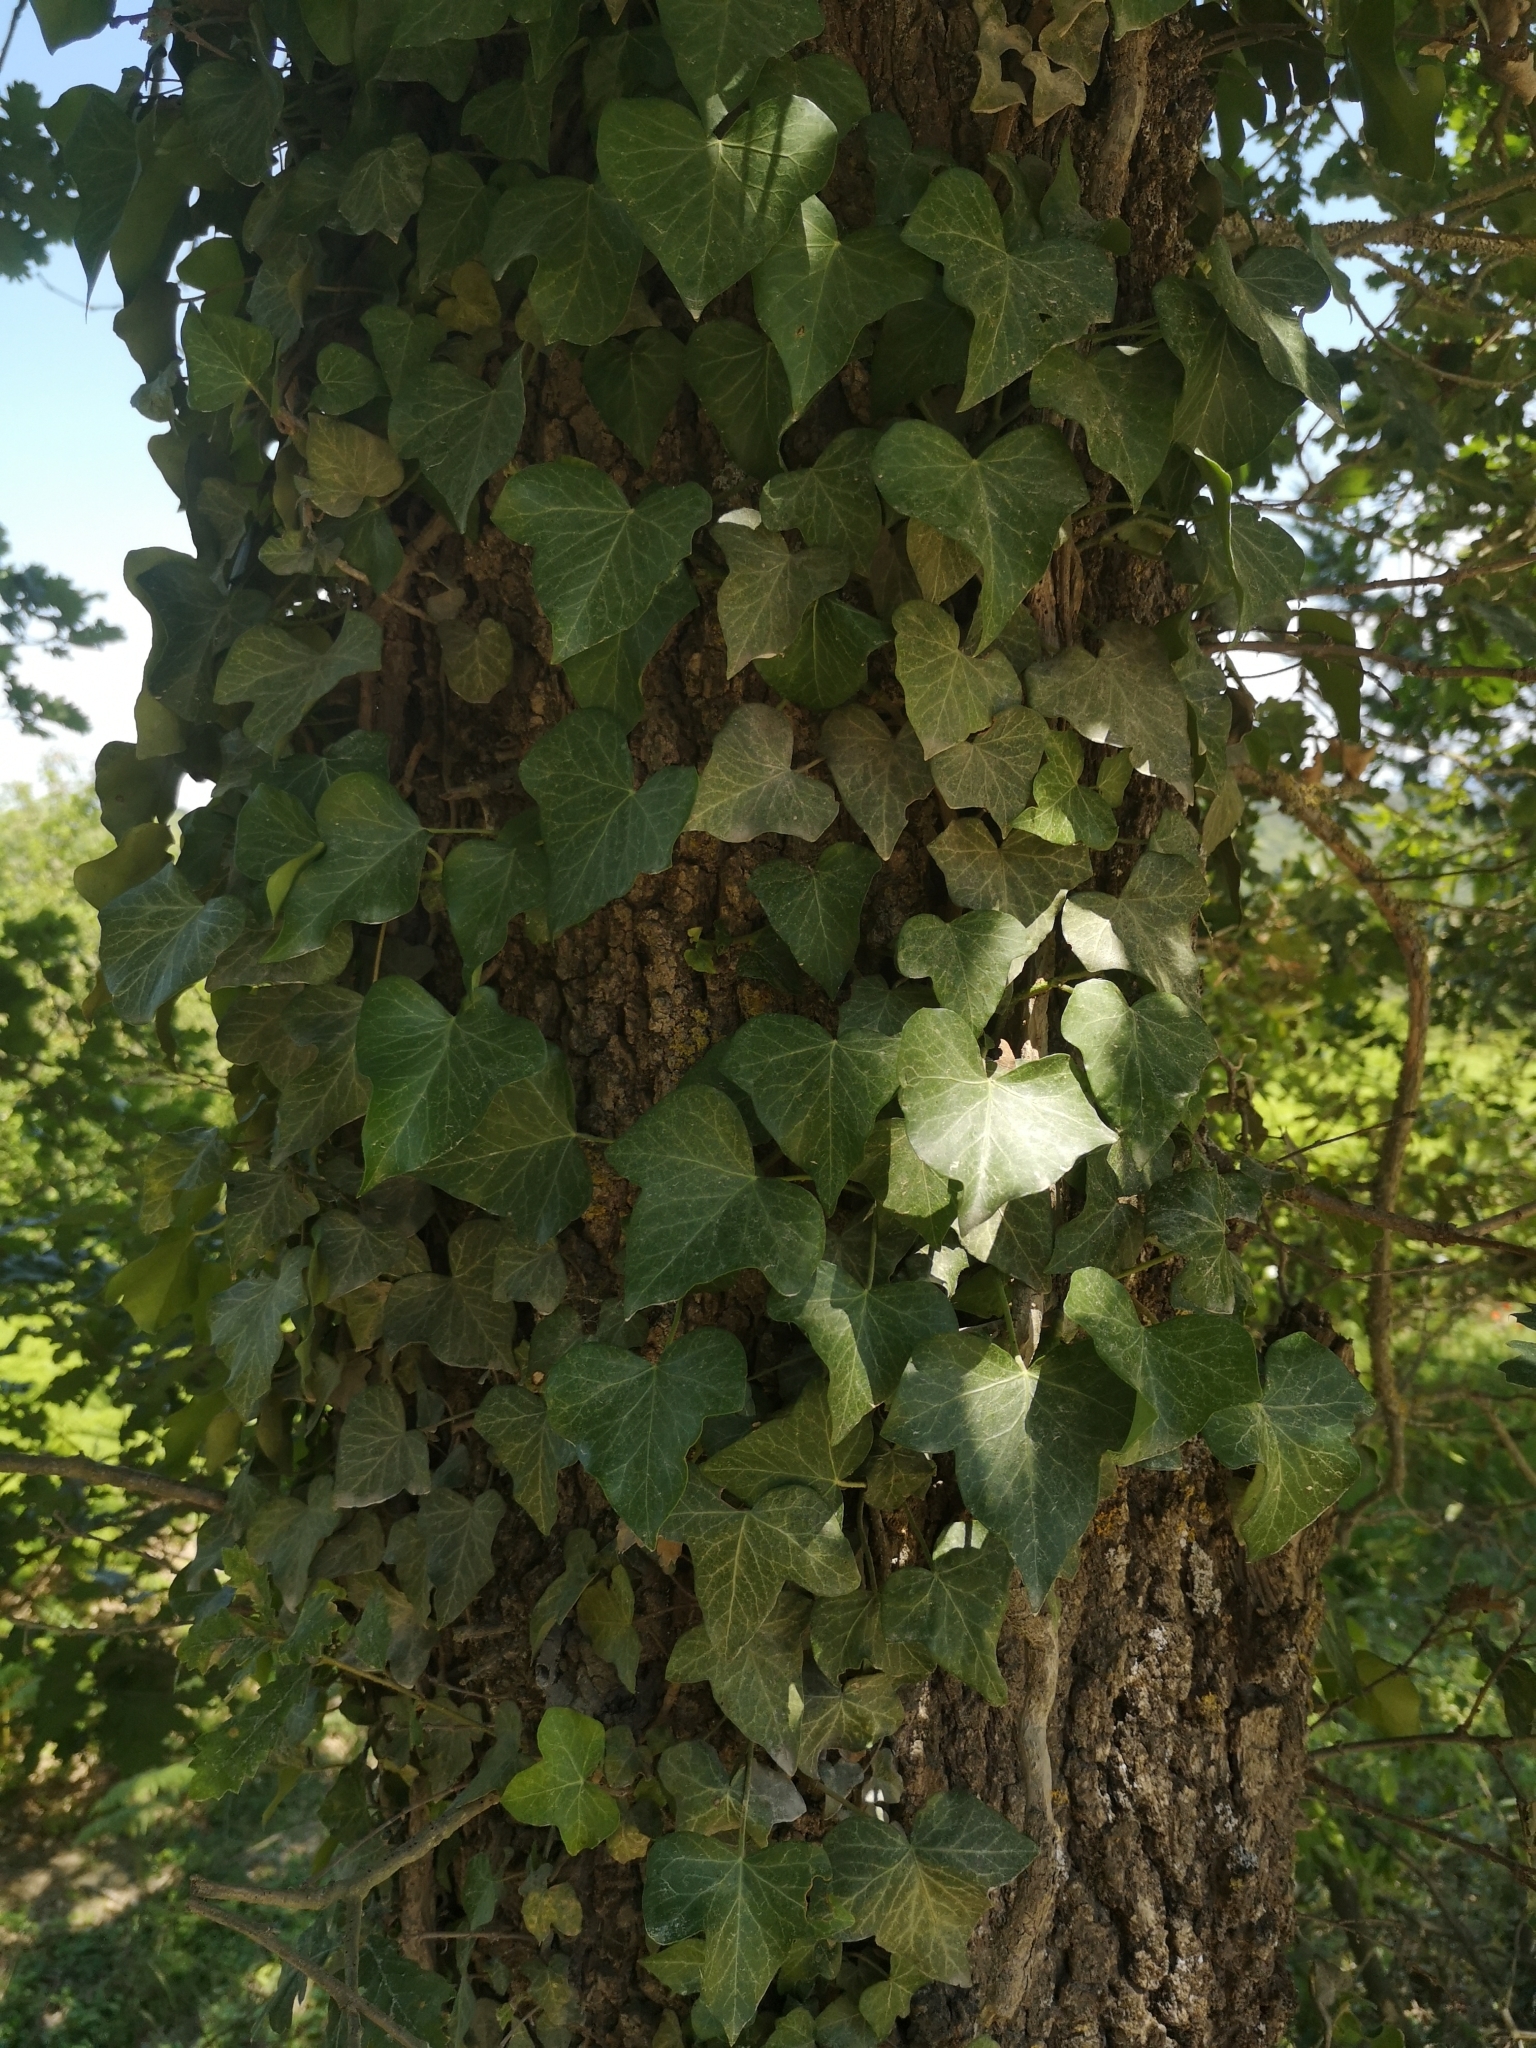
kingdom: Plantae
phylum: Tracheophyta
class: Magnoliopsida
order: Apiales
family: Araliaceae
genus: Hedera
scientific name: Hedera helix
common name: Ivy
